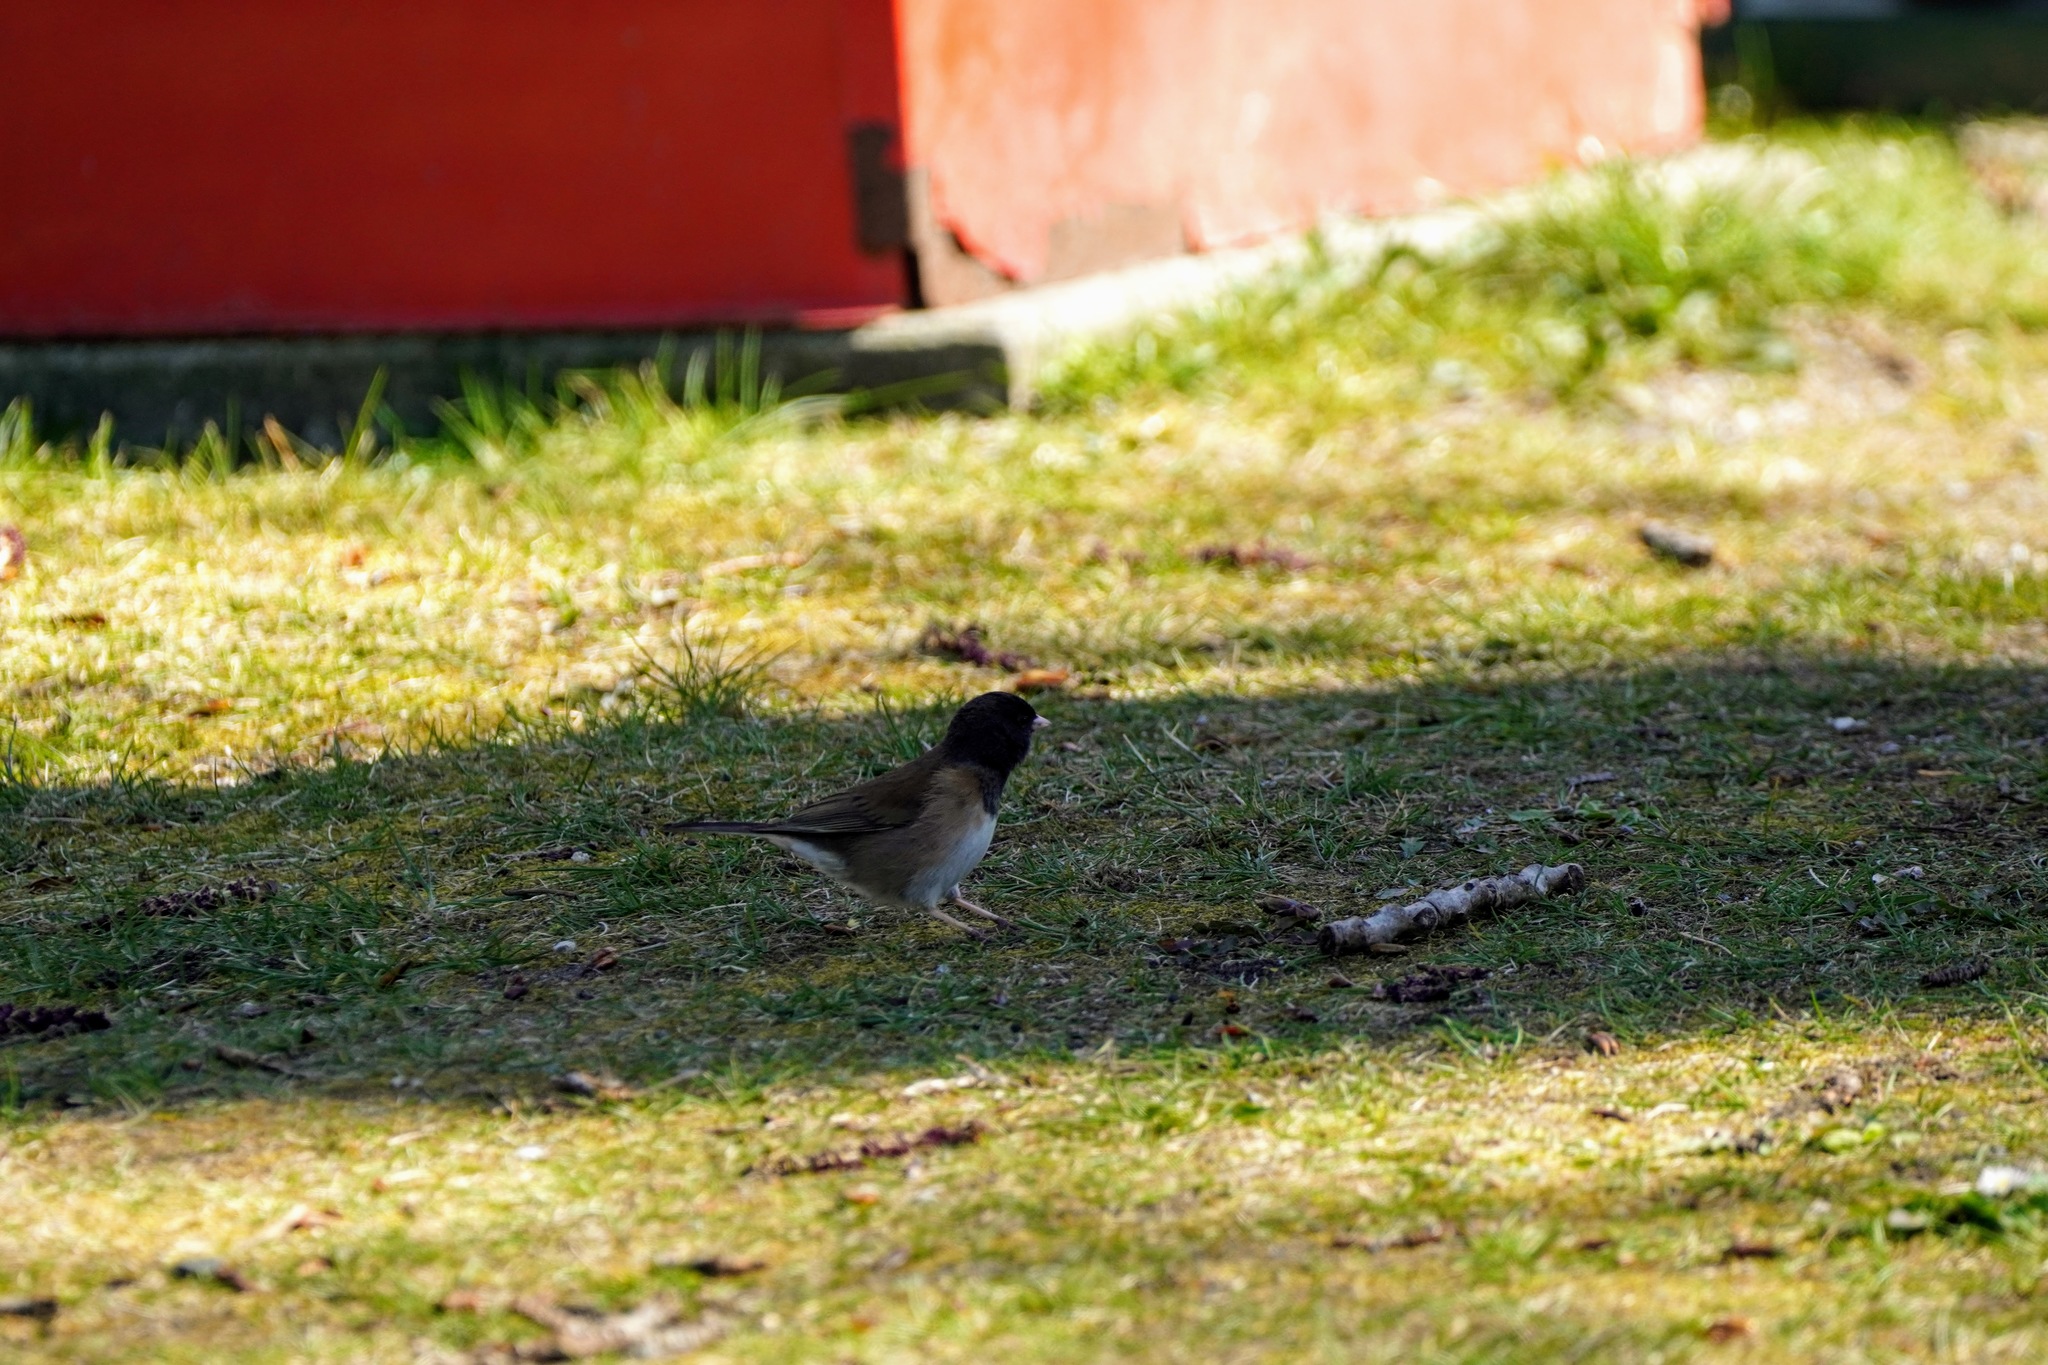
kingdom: Animalia
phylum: Chordata
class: Aves
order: Passeriformes
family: Passerellidae
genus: Junco
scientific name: Junco hyemalis
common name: Dark-eyed junco
